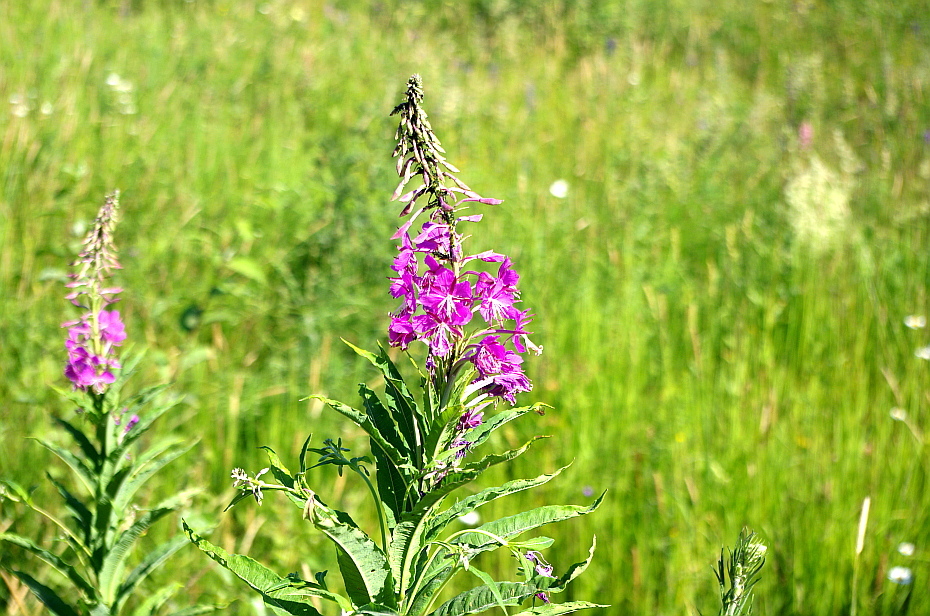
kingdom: Plantae
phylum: Tracheophyta
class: Magnoliopsida
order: Myrtales
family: Onagraceae
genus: Chamaenerion
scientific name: Chamaenerion angustifolium
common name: Fireweed
